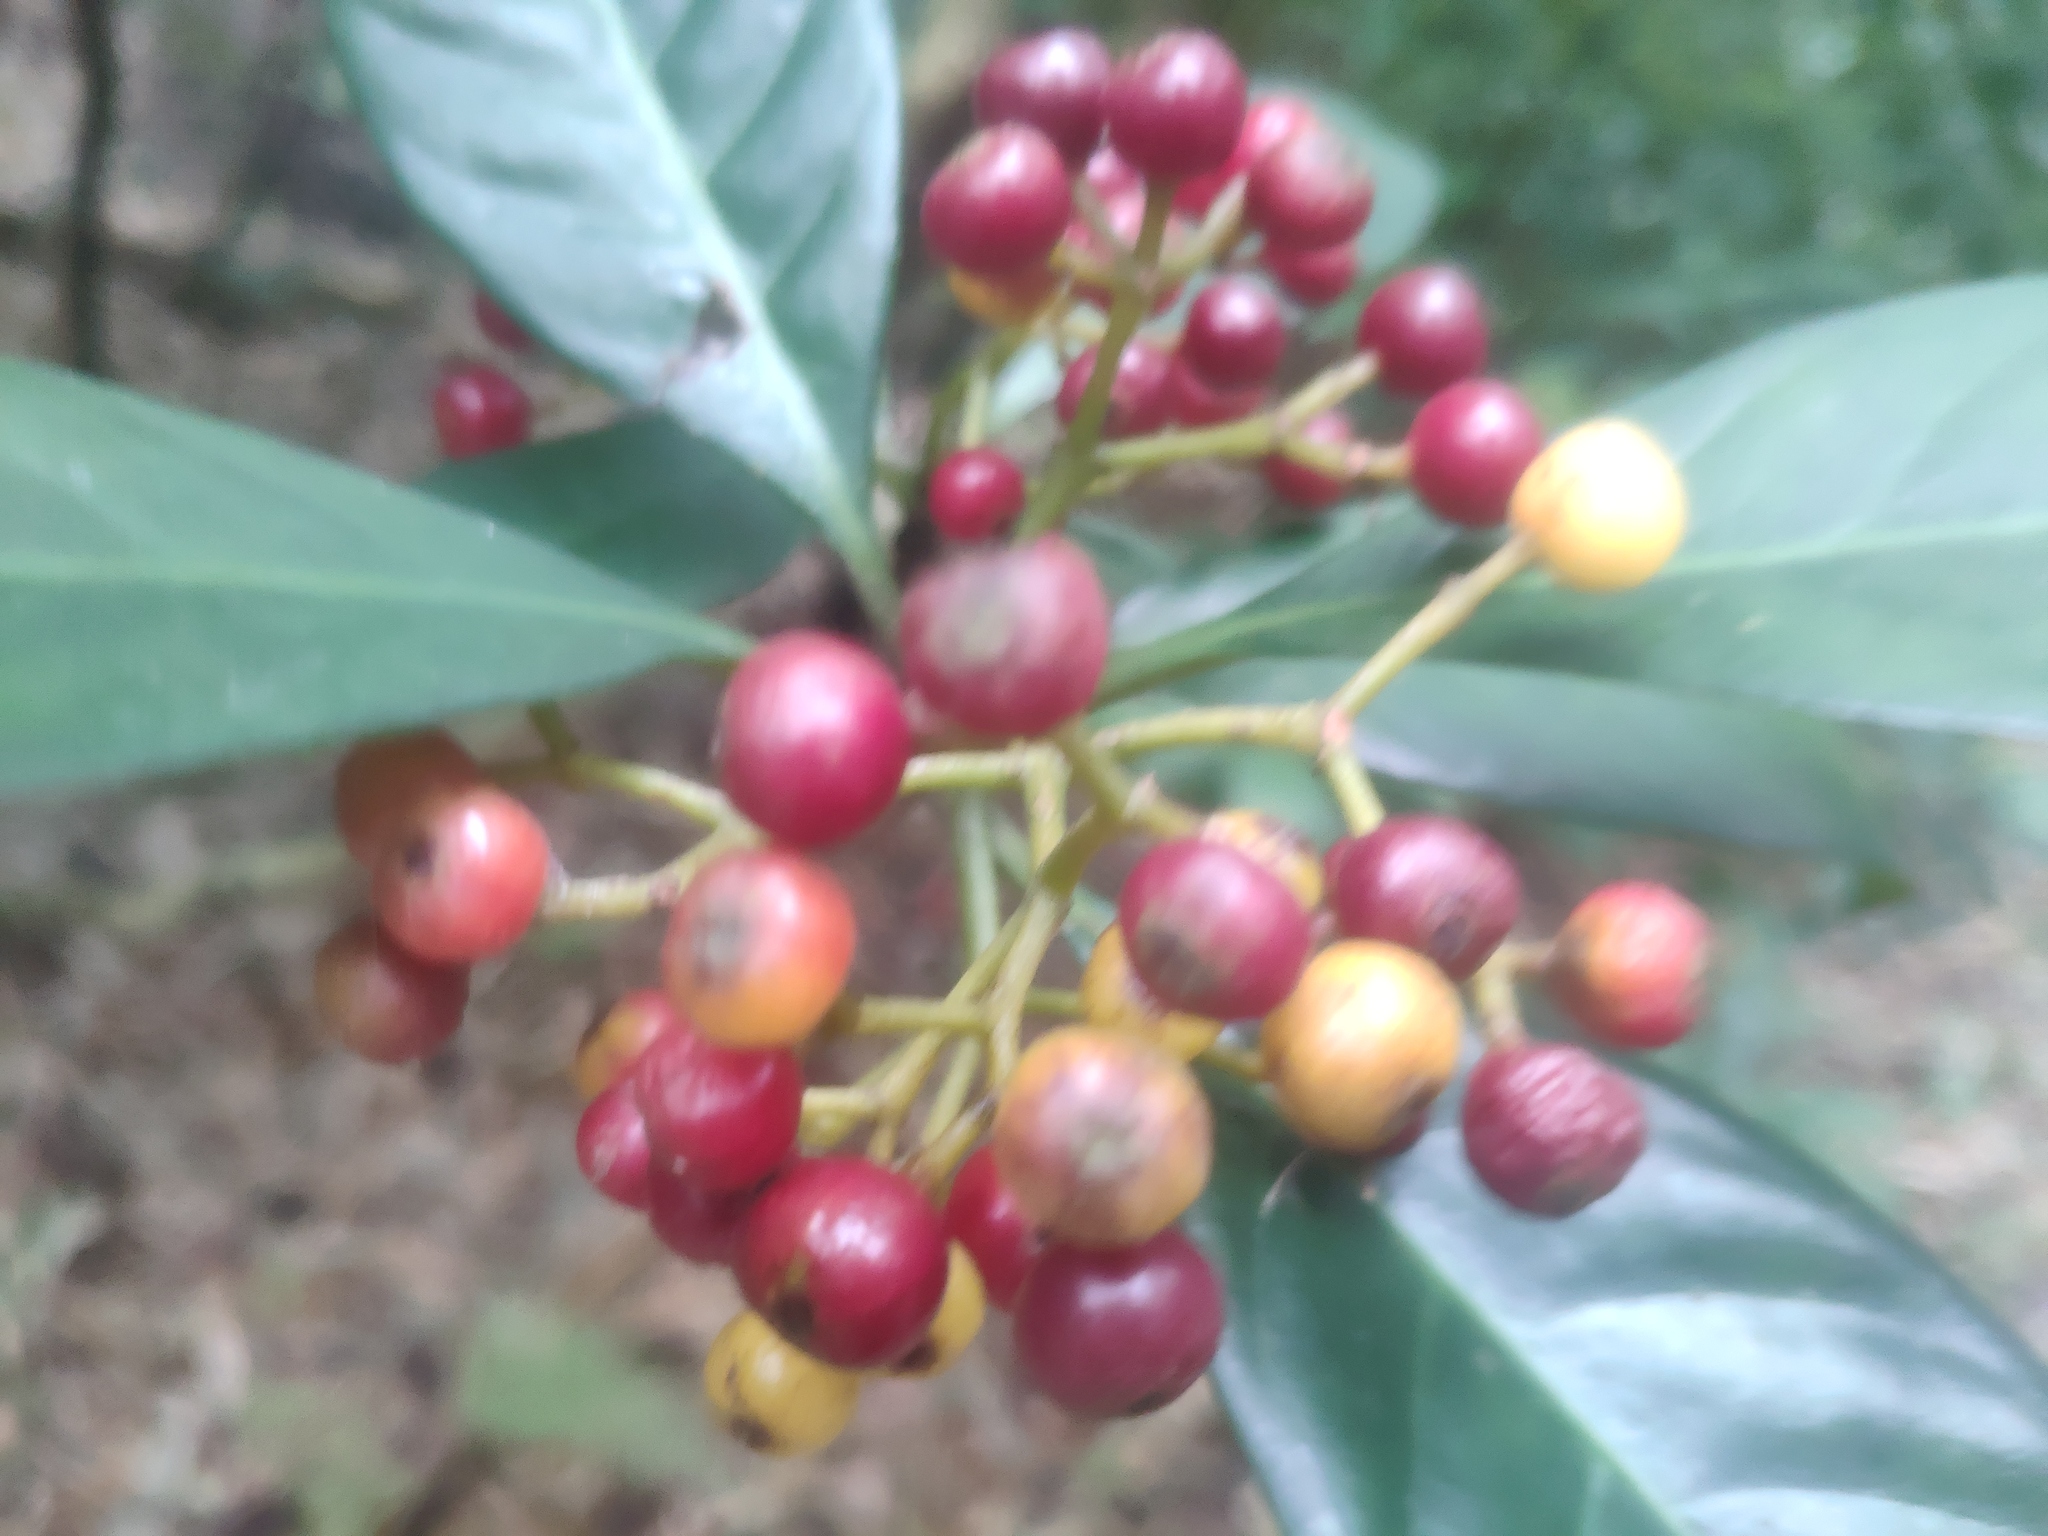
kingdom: Plantae
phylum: Tracheophyta
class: Magnoliopsida
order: Gentianales
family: Rubiaceae
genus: Psychotria
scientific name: Psychotria asiatica
